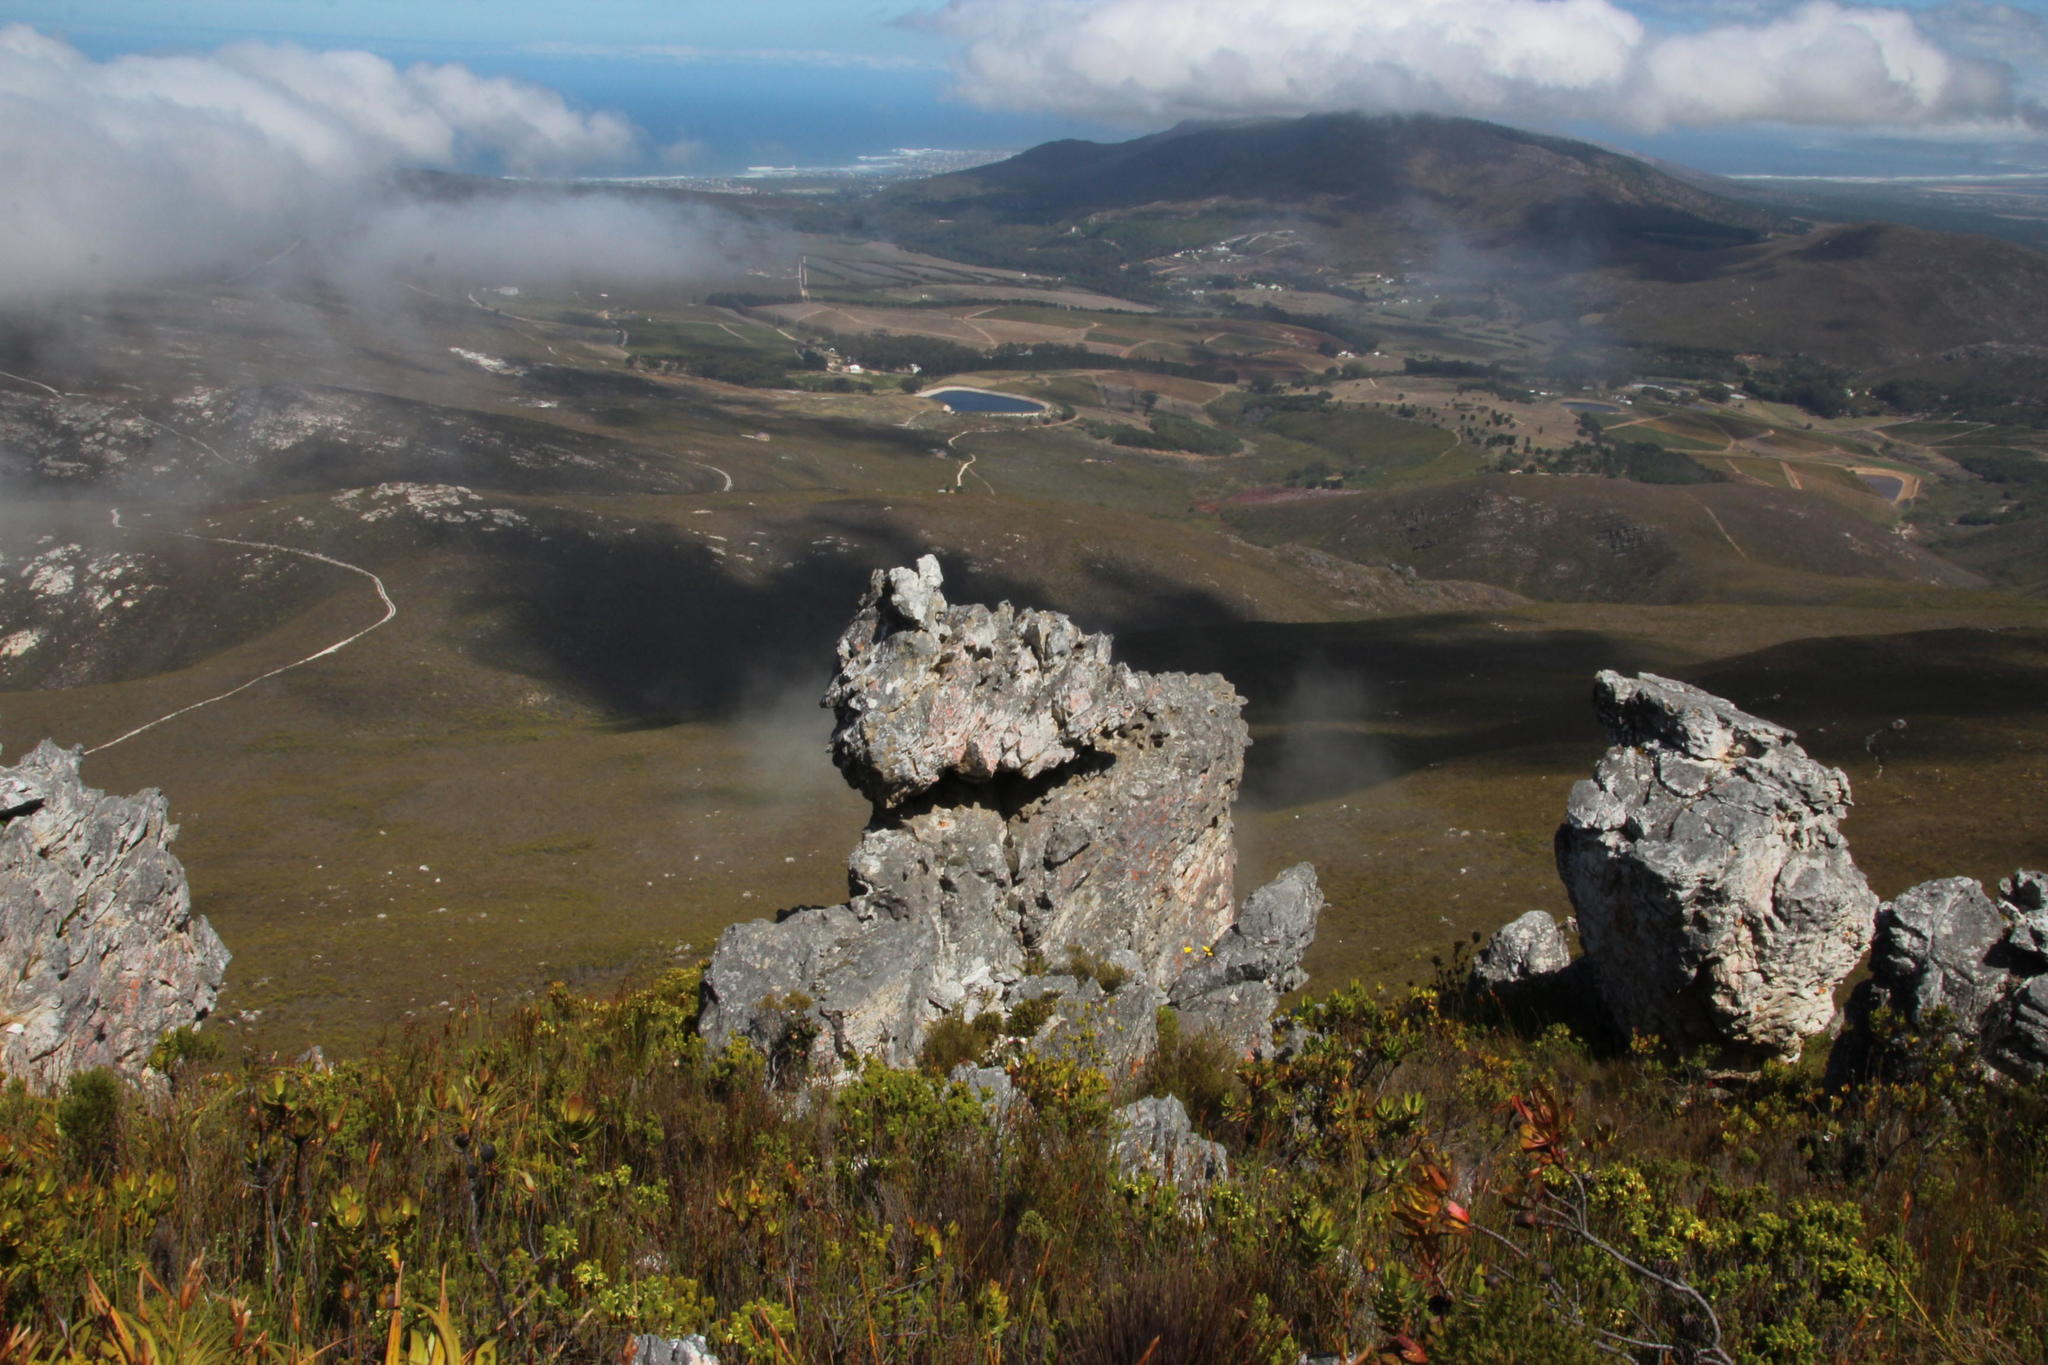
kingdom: Plantae
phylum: Tracheophyta
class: Magnoliopsida
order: Asterales
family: Asteraceae
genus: Muscosomorphe
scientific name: Muscosomorphe aretioides
